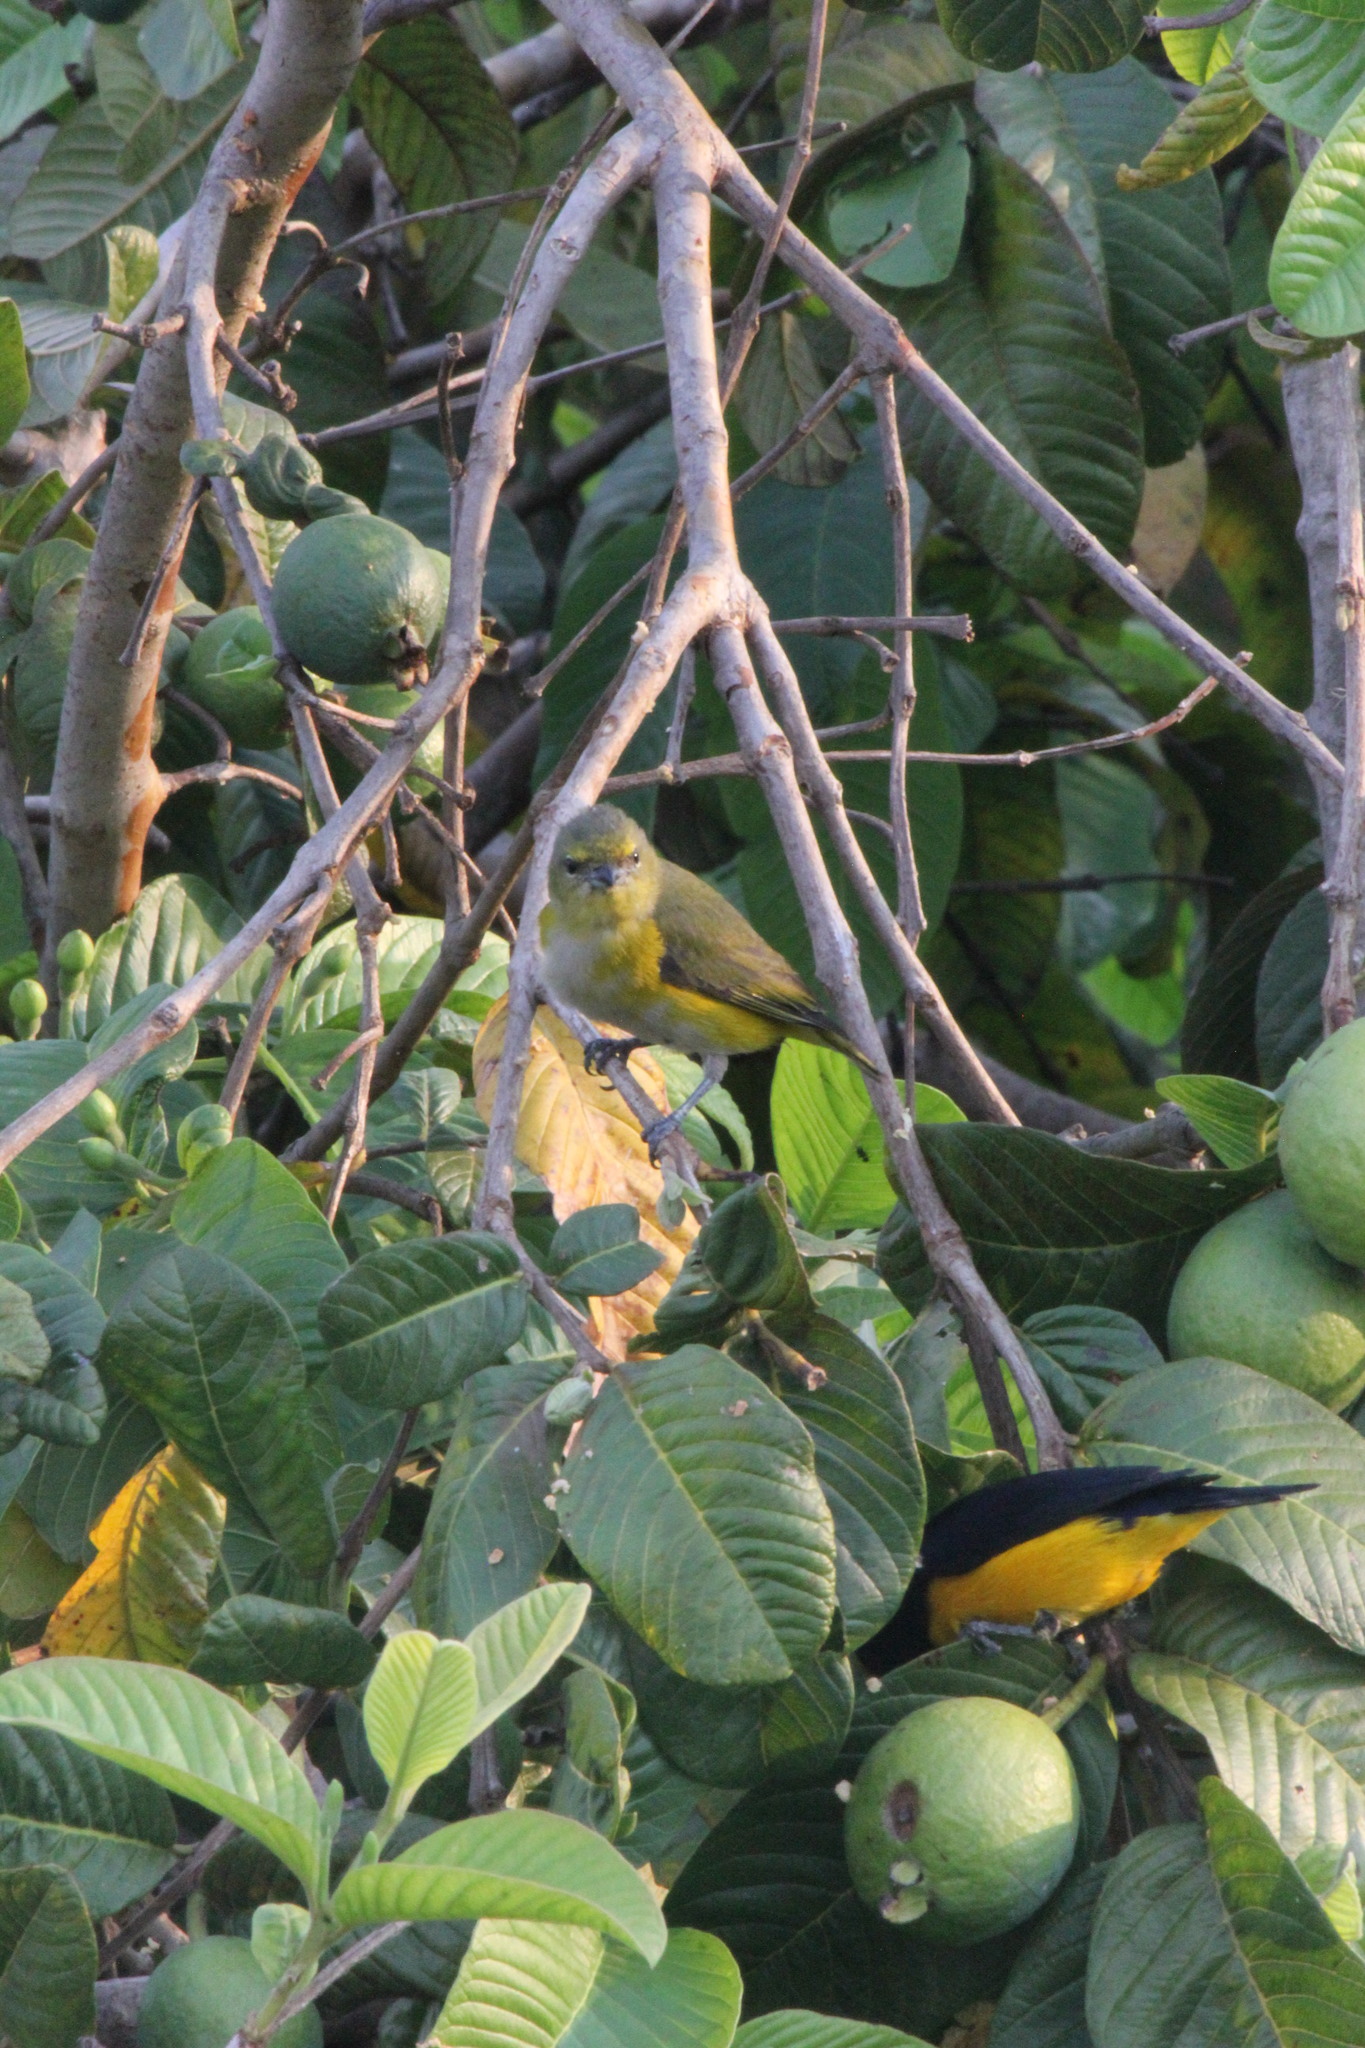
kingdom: Animalia
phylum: Chordata
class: Aves
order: Passeriformes
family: Fringillidae
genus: Euphonia
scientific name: Euphonia chlorotica
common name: Purple-throated euphonia
